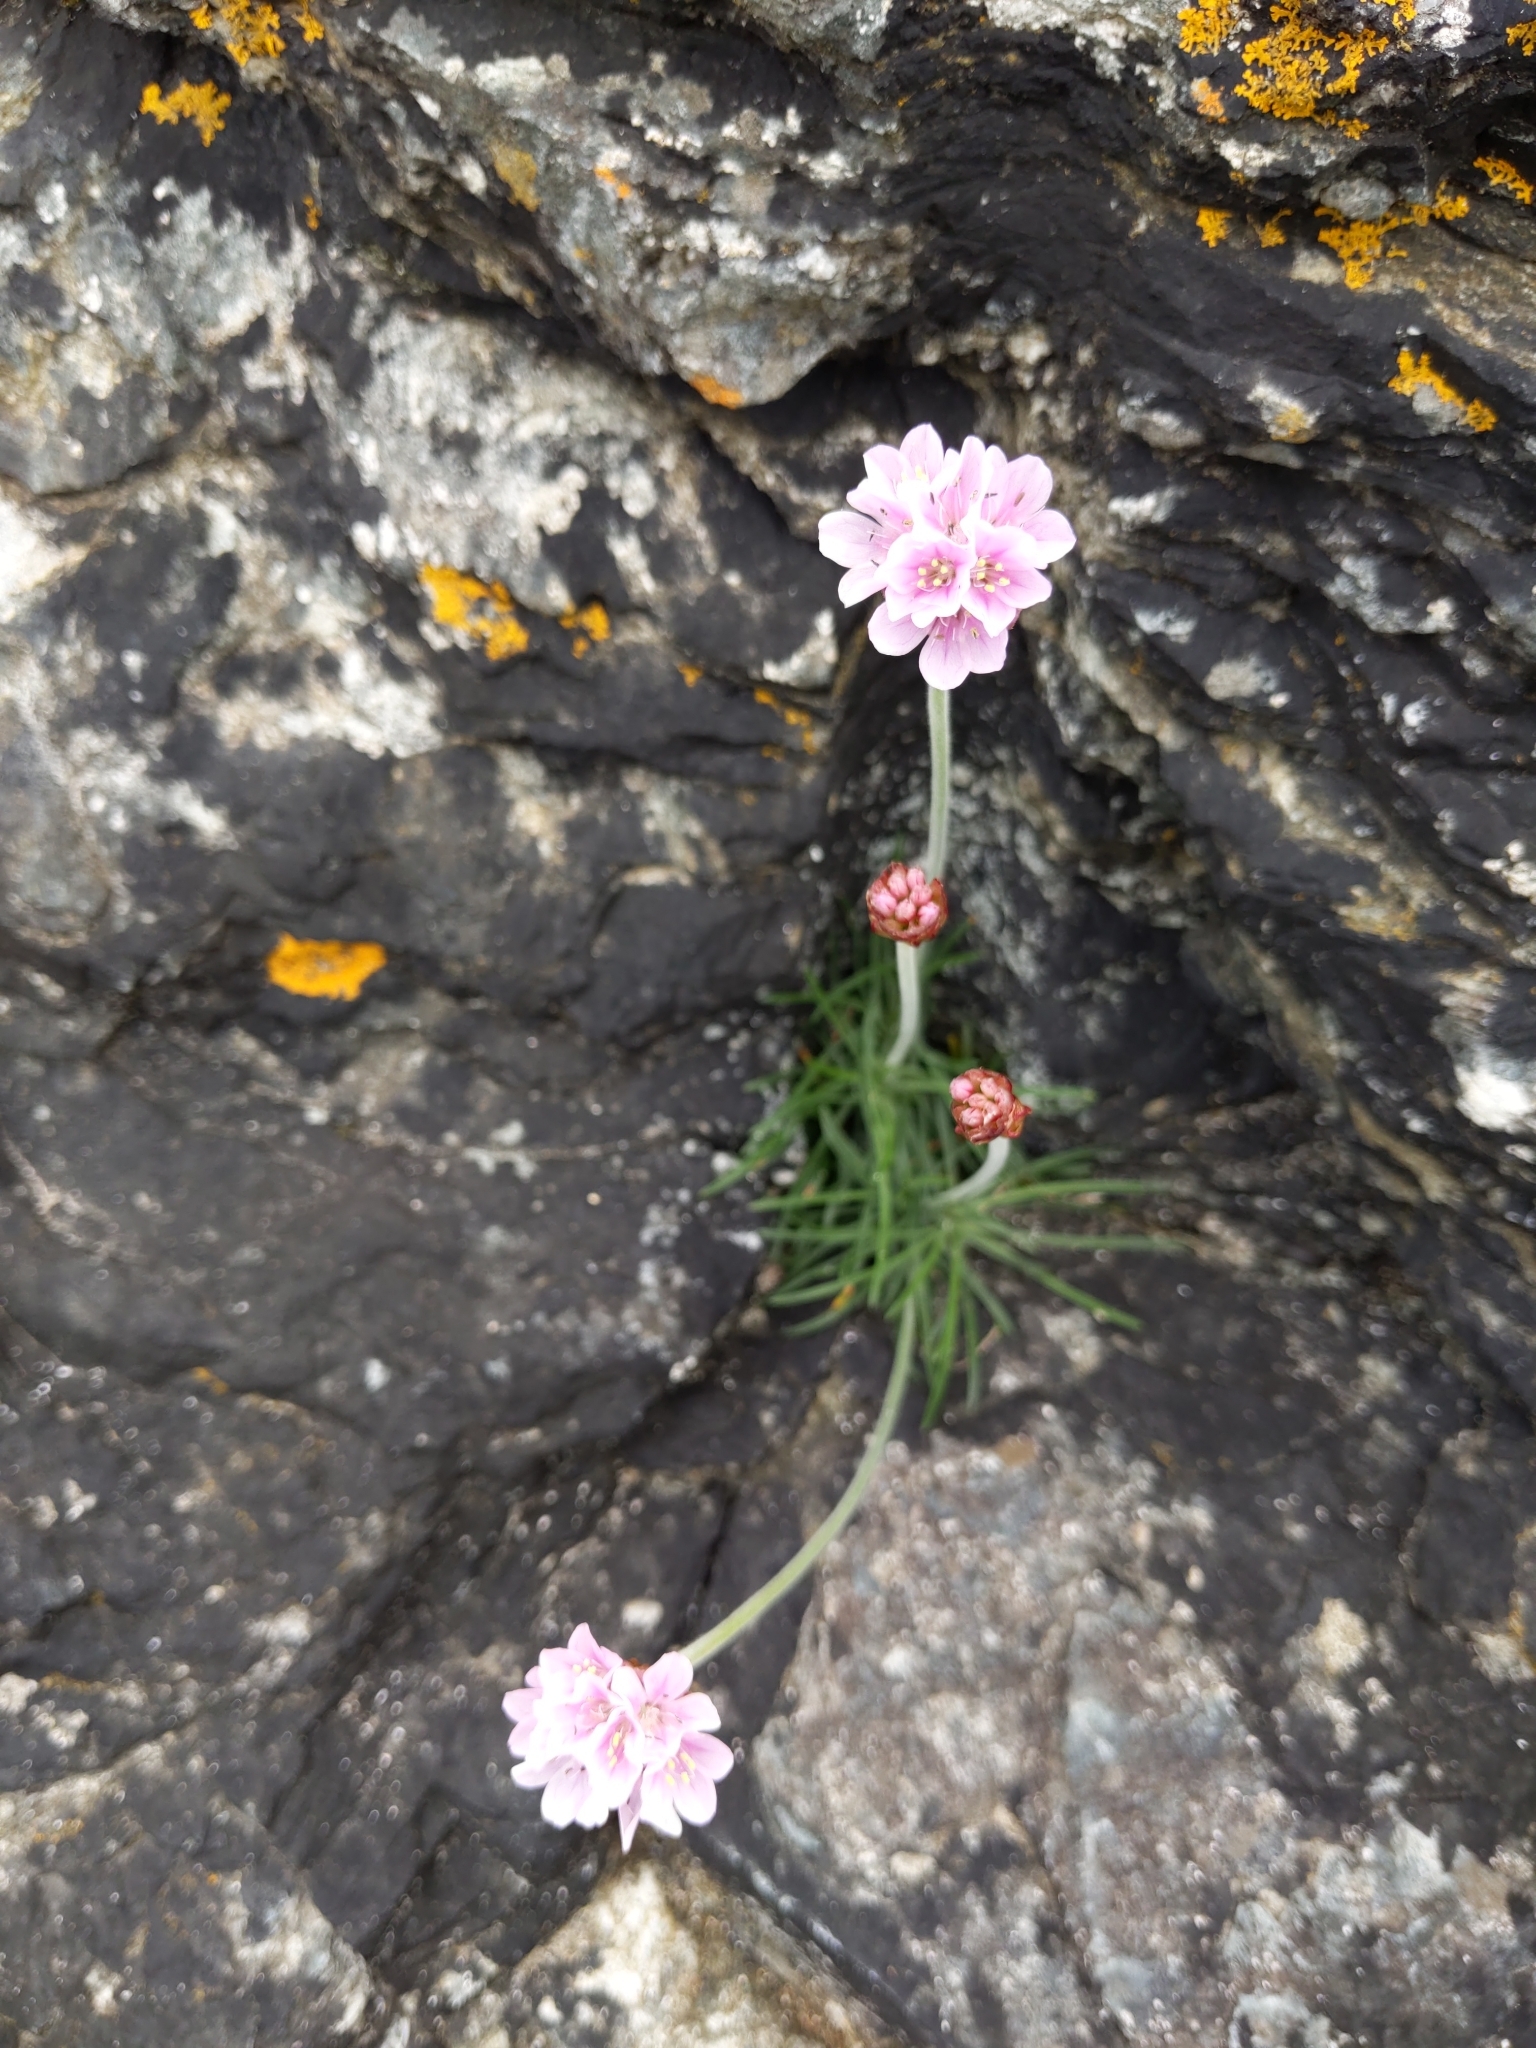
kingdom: Plantae
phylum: Tracheophyta
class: Magnoliopsida
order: Caryophyllales
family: Plumbaginaceae
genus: Armeria
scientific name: Armeria maritima
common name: Thrift
